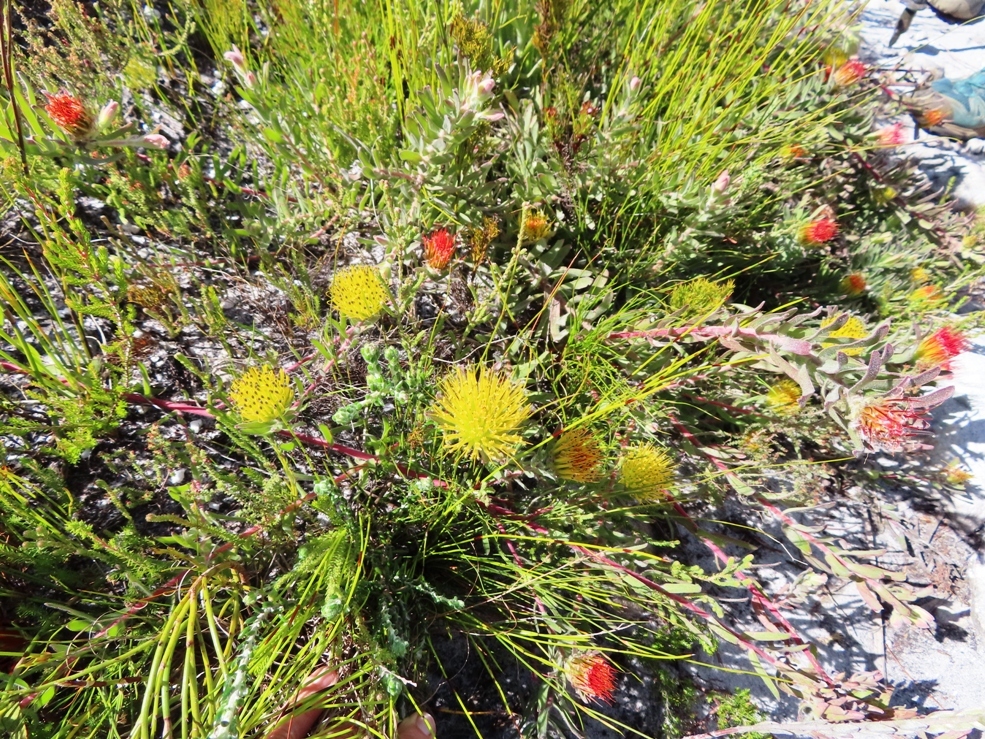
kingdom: Plantae
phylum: Tracheophyta
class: Magnoliopsida
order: Proteales
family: Proteaceae
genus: Leucospermum
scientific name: Leucospermum gracile
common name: Hermanus pincushion
